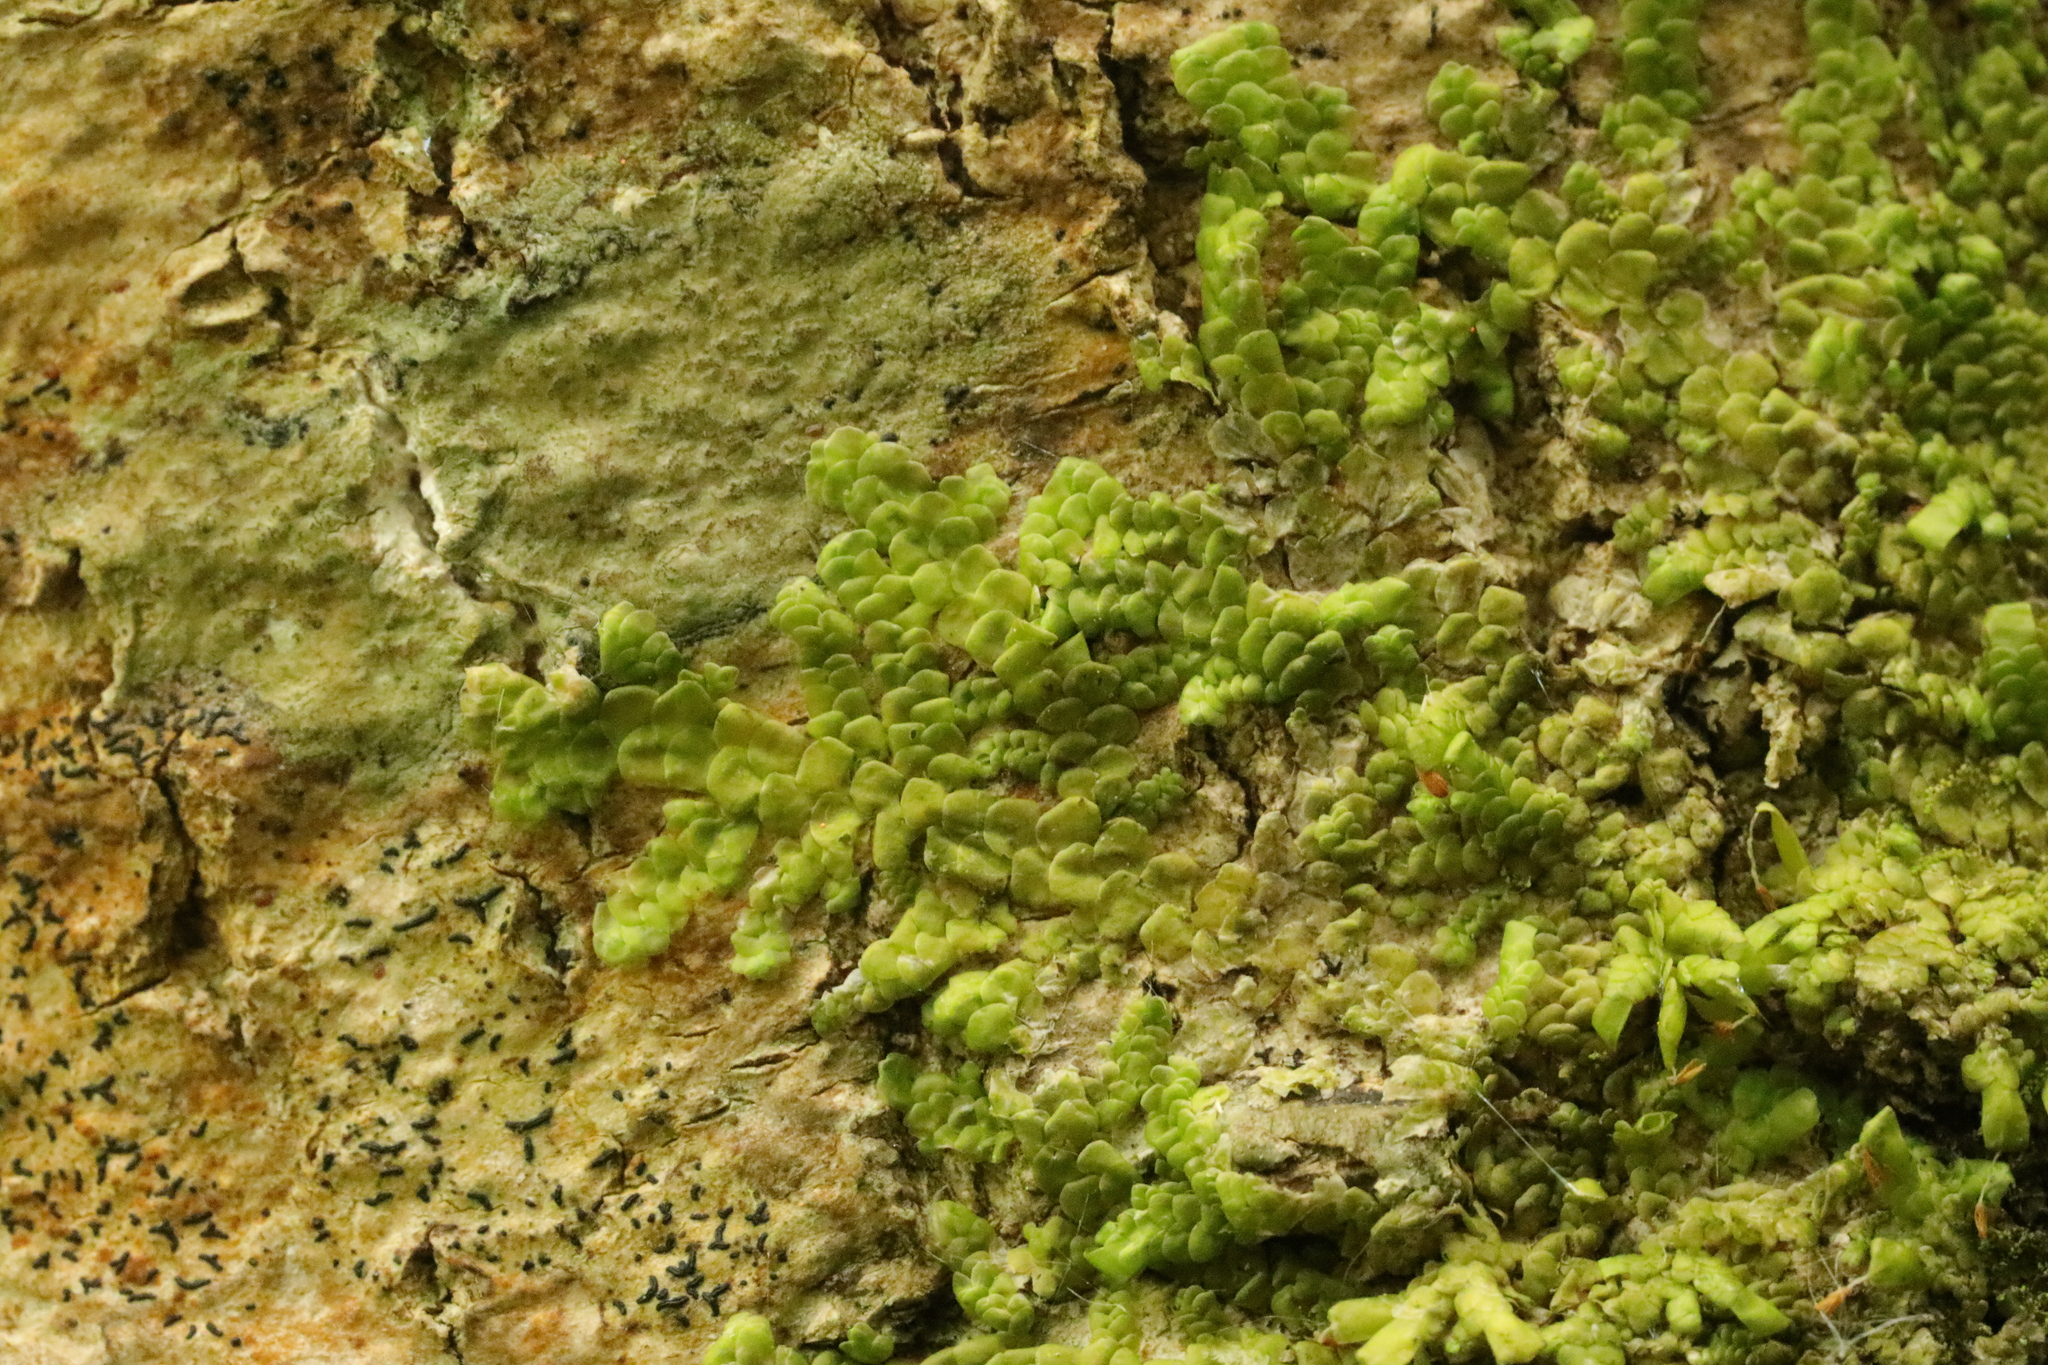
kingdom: Plantae
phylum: Marchantiophyta
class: Jungermanniopsida
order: Porellales
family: Radulaceae
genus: Radula
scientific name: Radula complanata
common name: Flat-leaved scalewort
